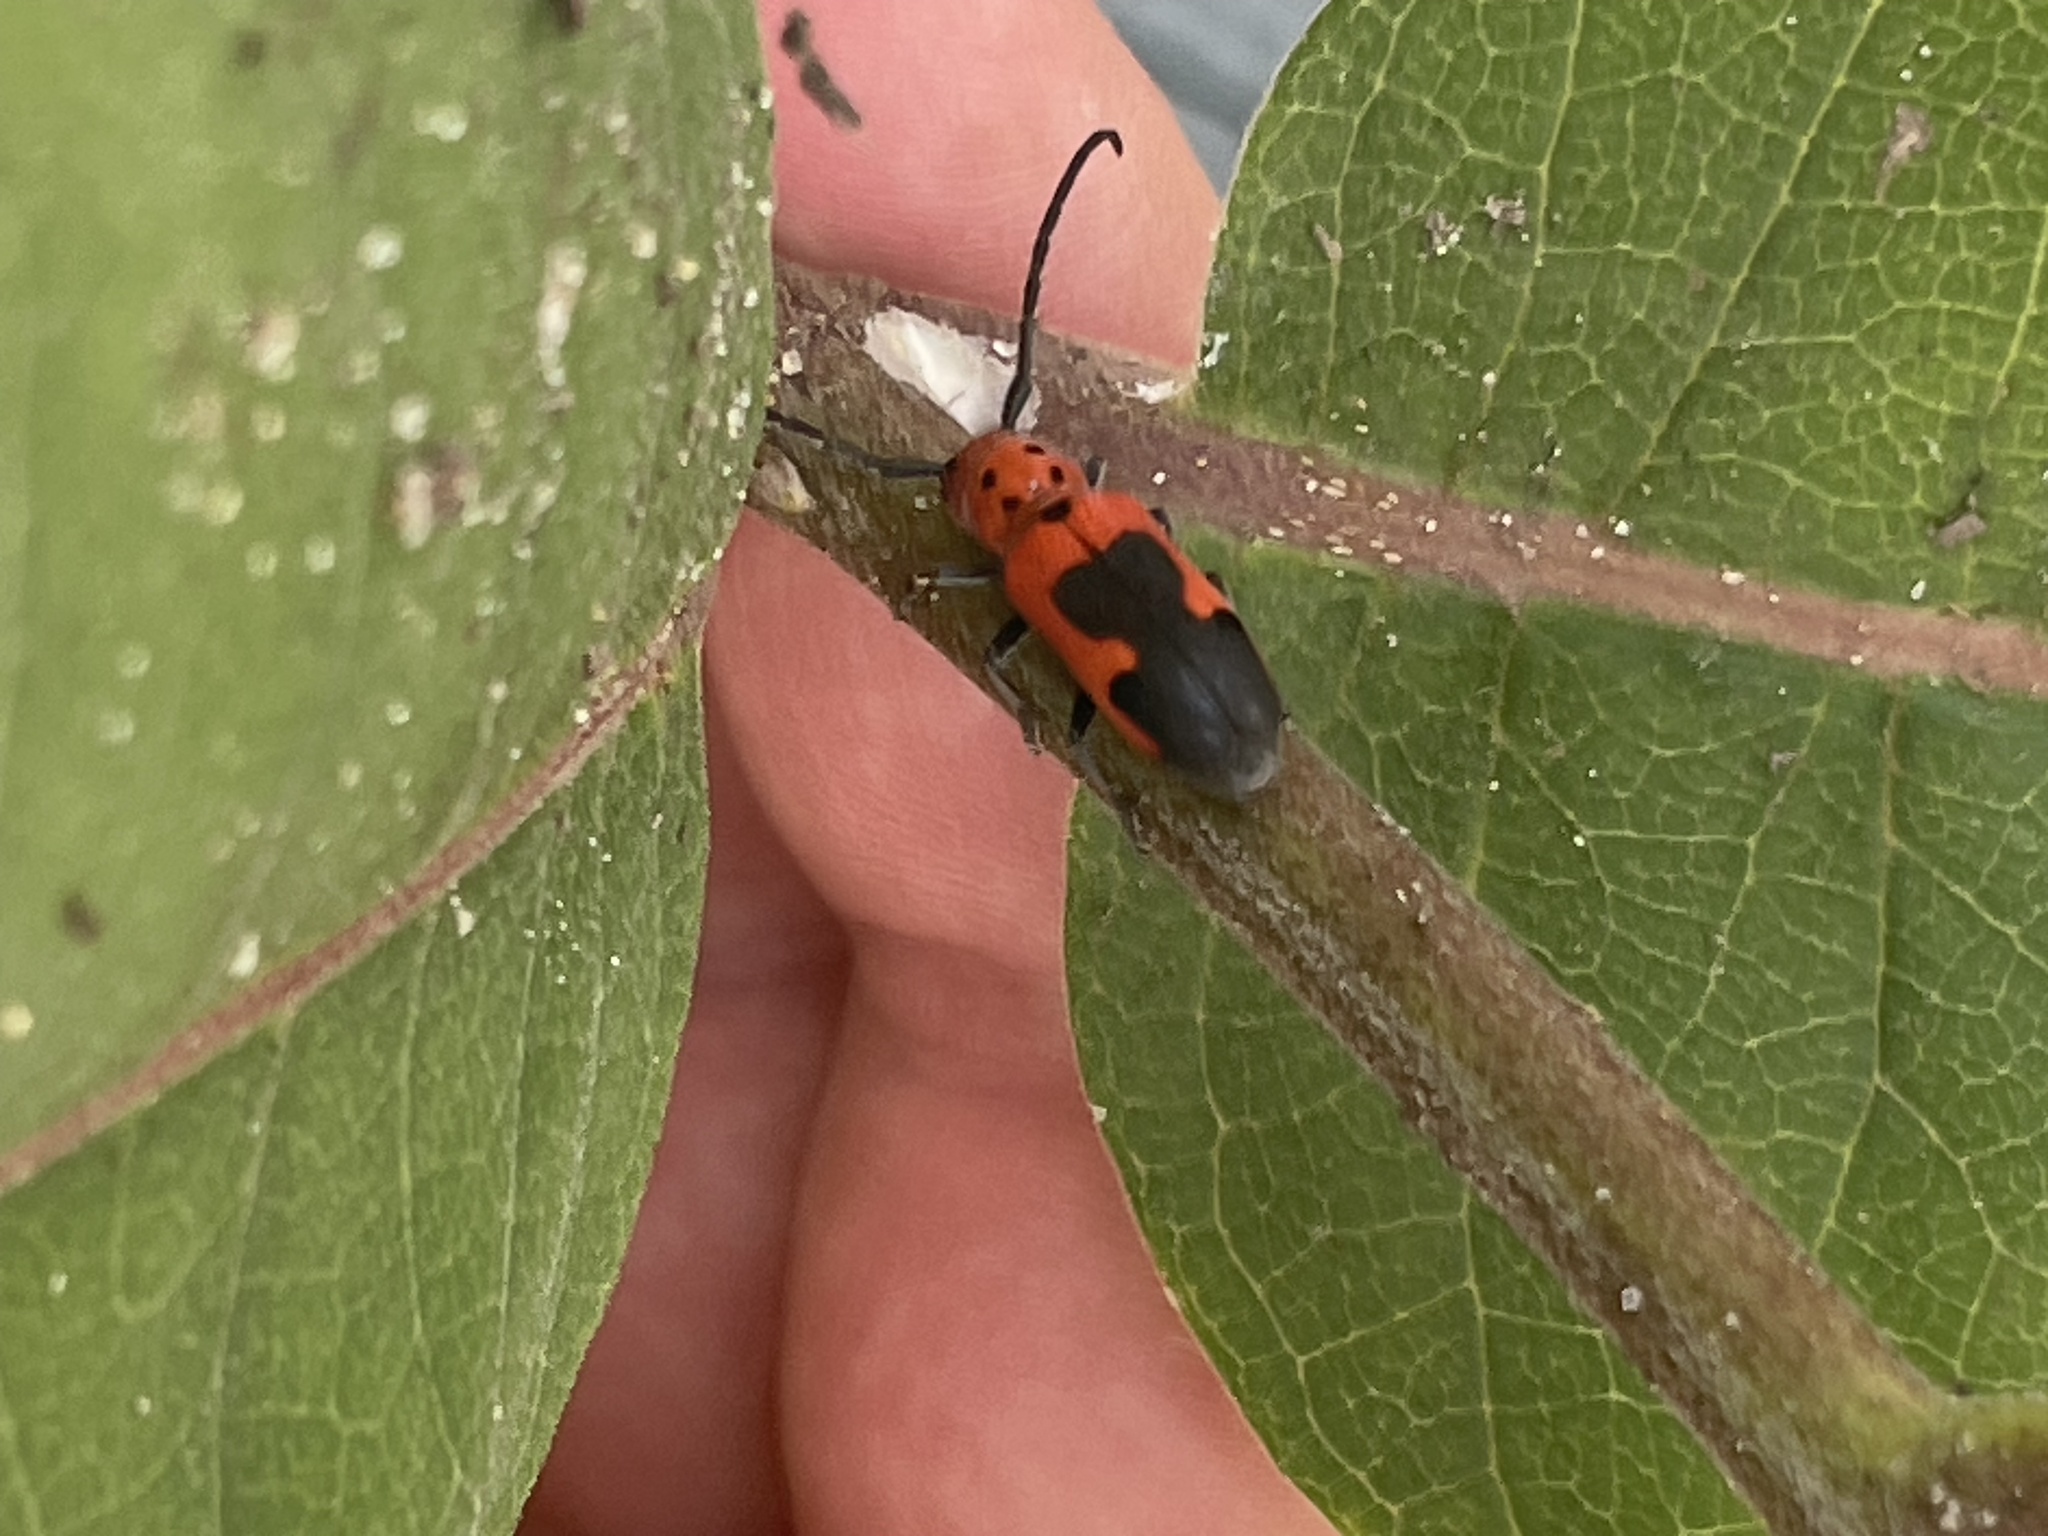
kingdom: Animalia
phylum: Arthropoda
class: Insecta
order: Coleoptera
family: Cerambycidae
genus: Tetraopes
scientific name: Tetraopes melanurus
